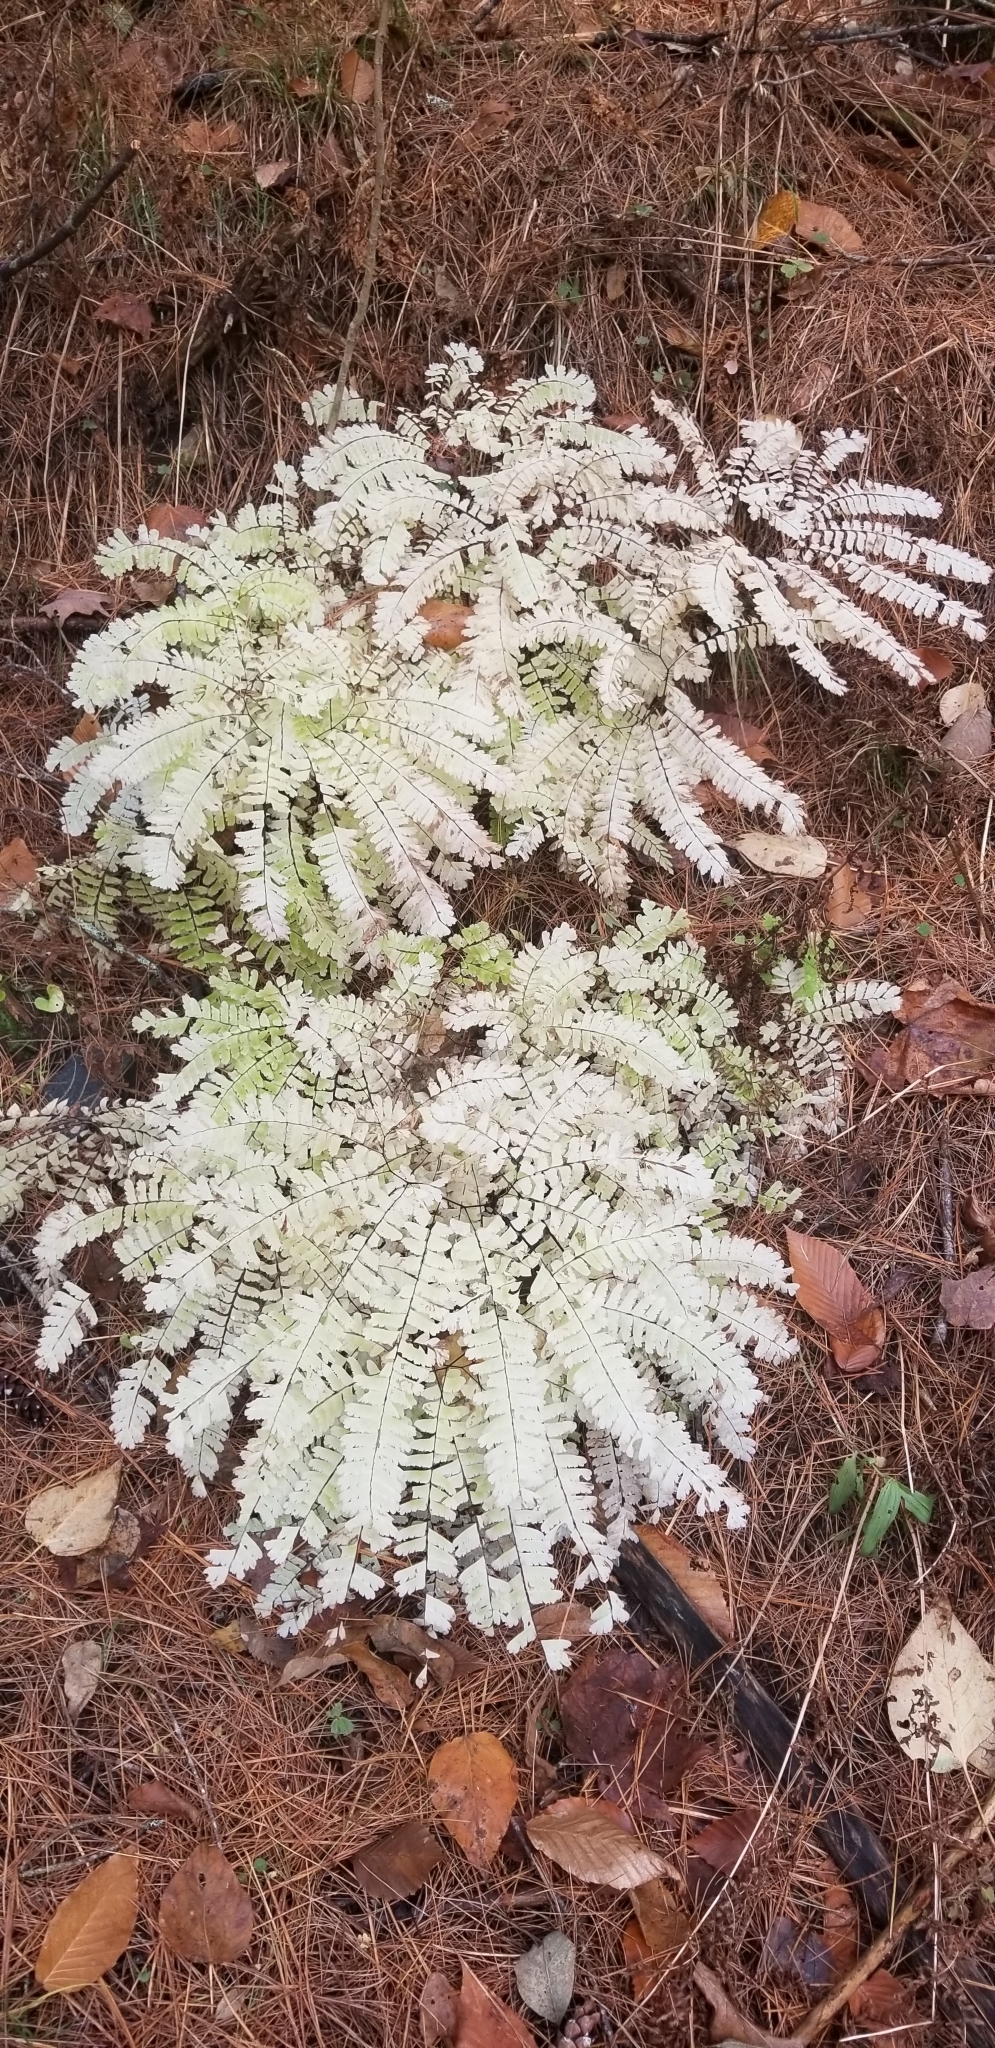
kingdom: Plantae
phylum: Tracheophyta
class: Polypodiopsida
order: Polypodiales
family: Pteridaceae
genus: Adiantum
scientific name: Adiantum pedatum
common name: Five-finger fern
